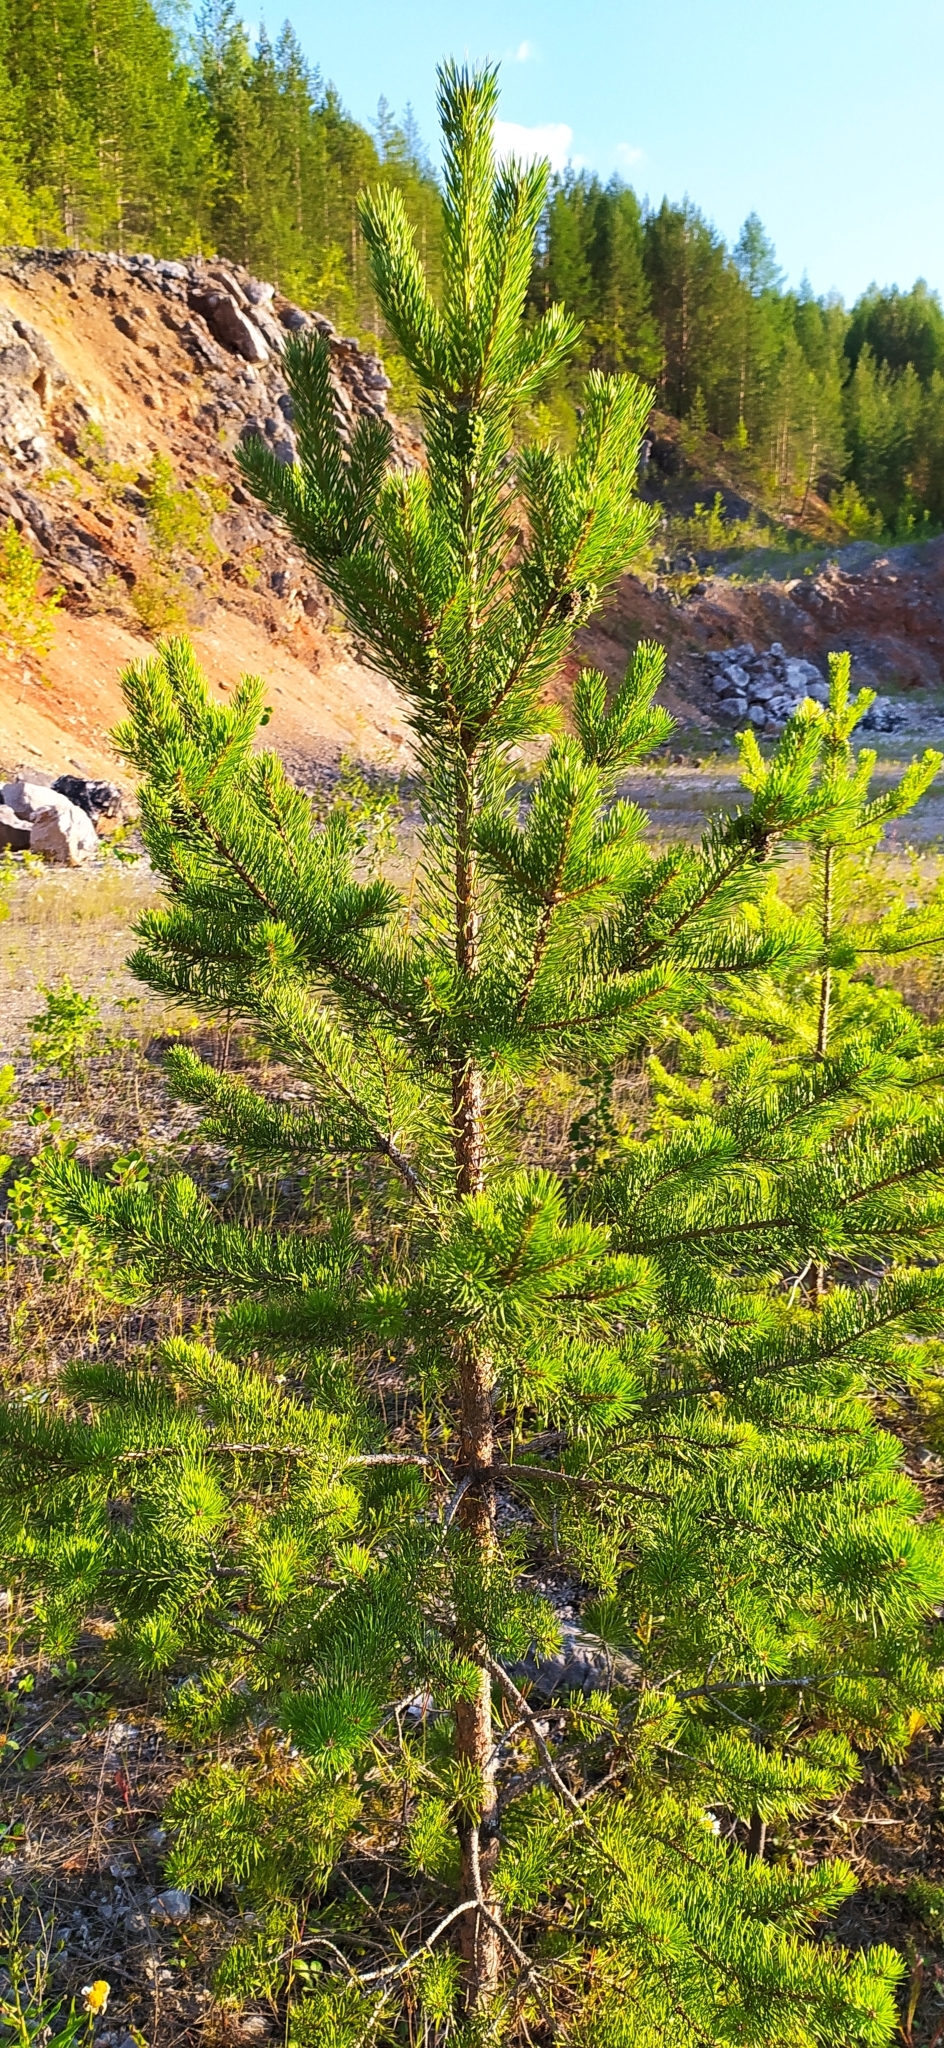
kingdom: Plantae
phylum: Tracheophyta
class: Pinopsida
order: Pinales
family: Pinaceae
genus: Pinus
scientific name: Pinus sylvestris
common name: Scots pine
